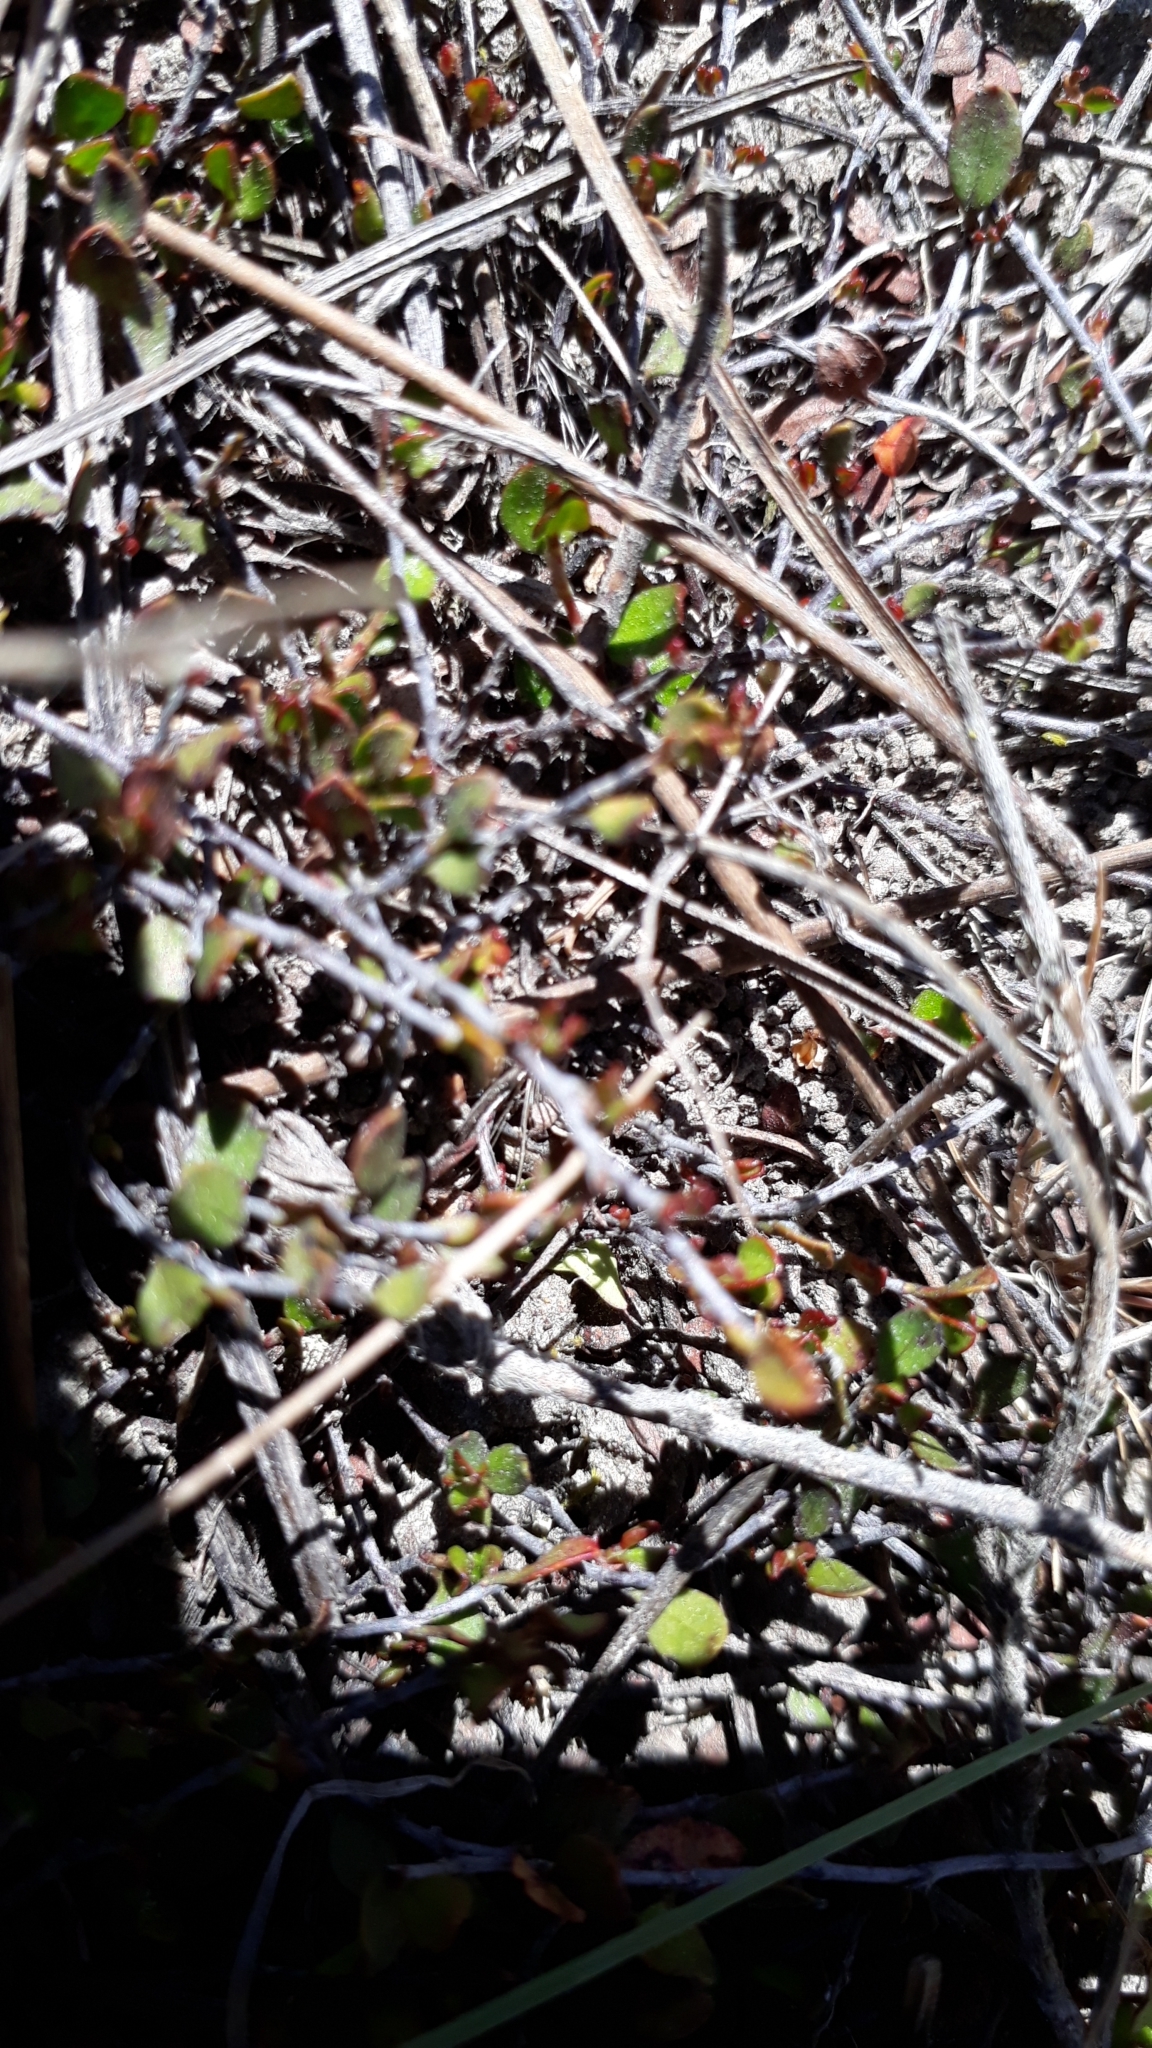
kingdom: Plantae
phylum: Tracheophyta
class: Magnoliopsida
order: Caryophyllales
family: Polygonaceae
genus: Muehlenbeckia
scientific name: Muehlenbeckia axillaris
